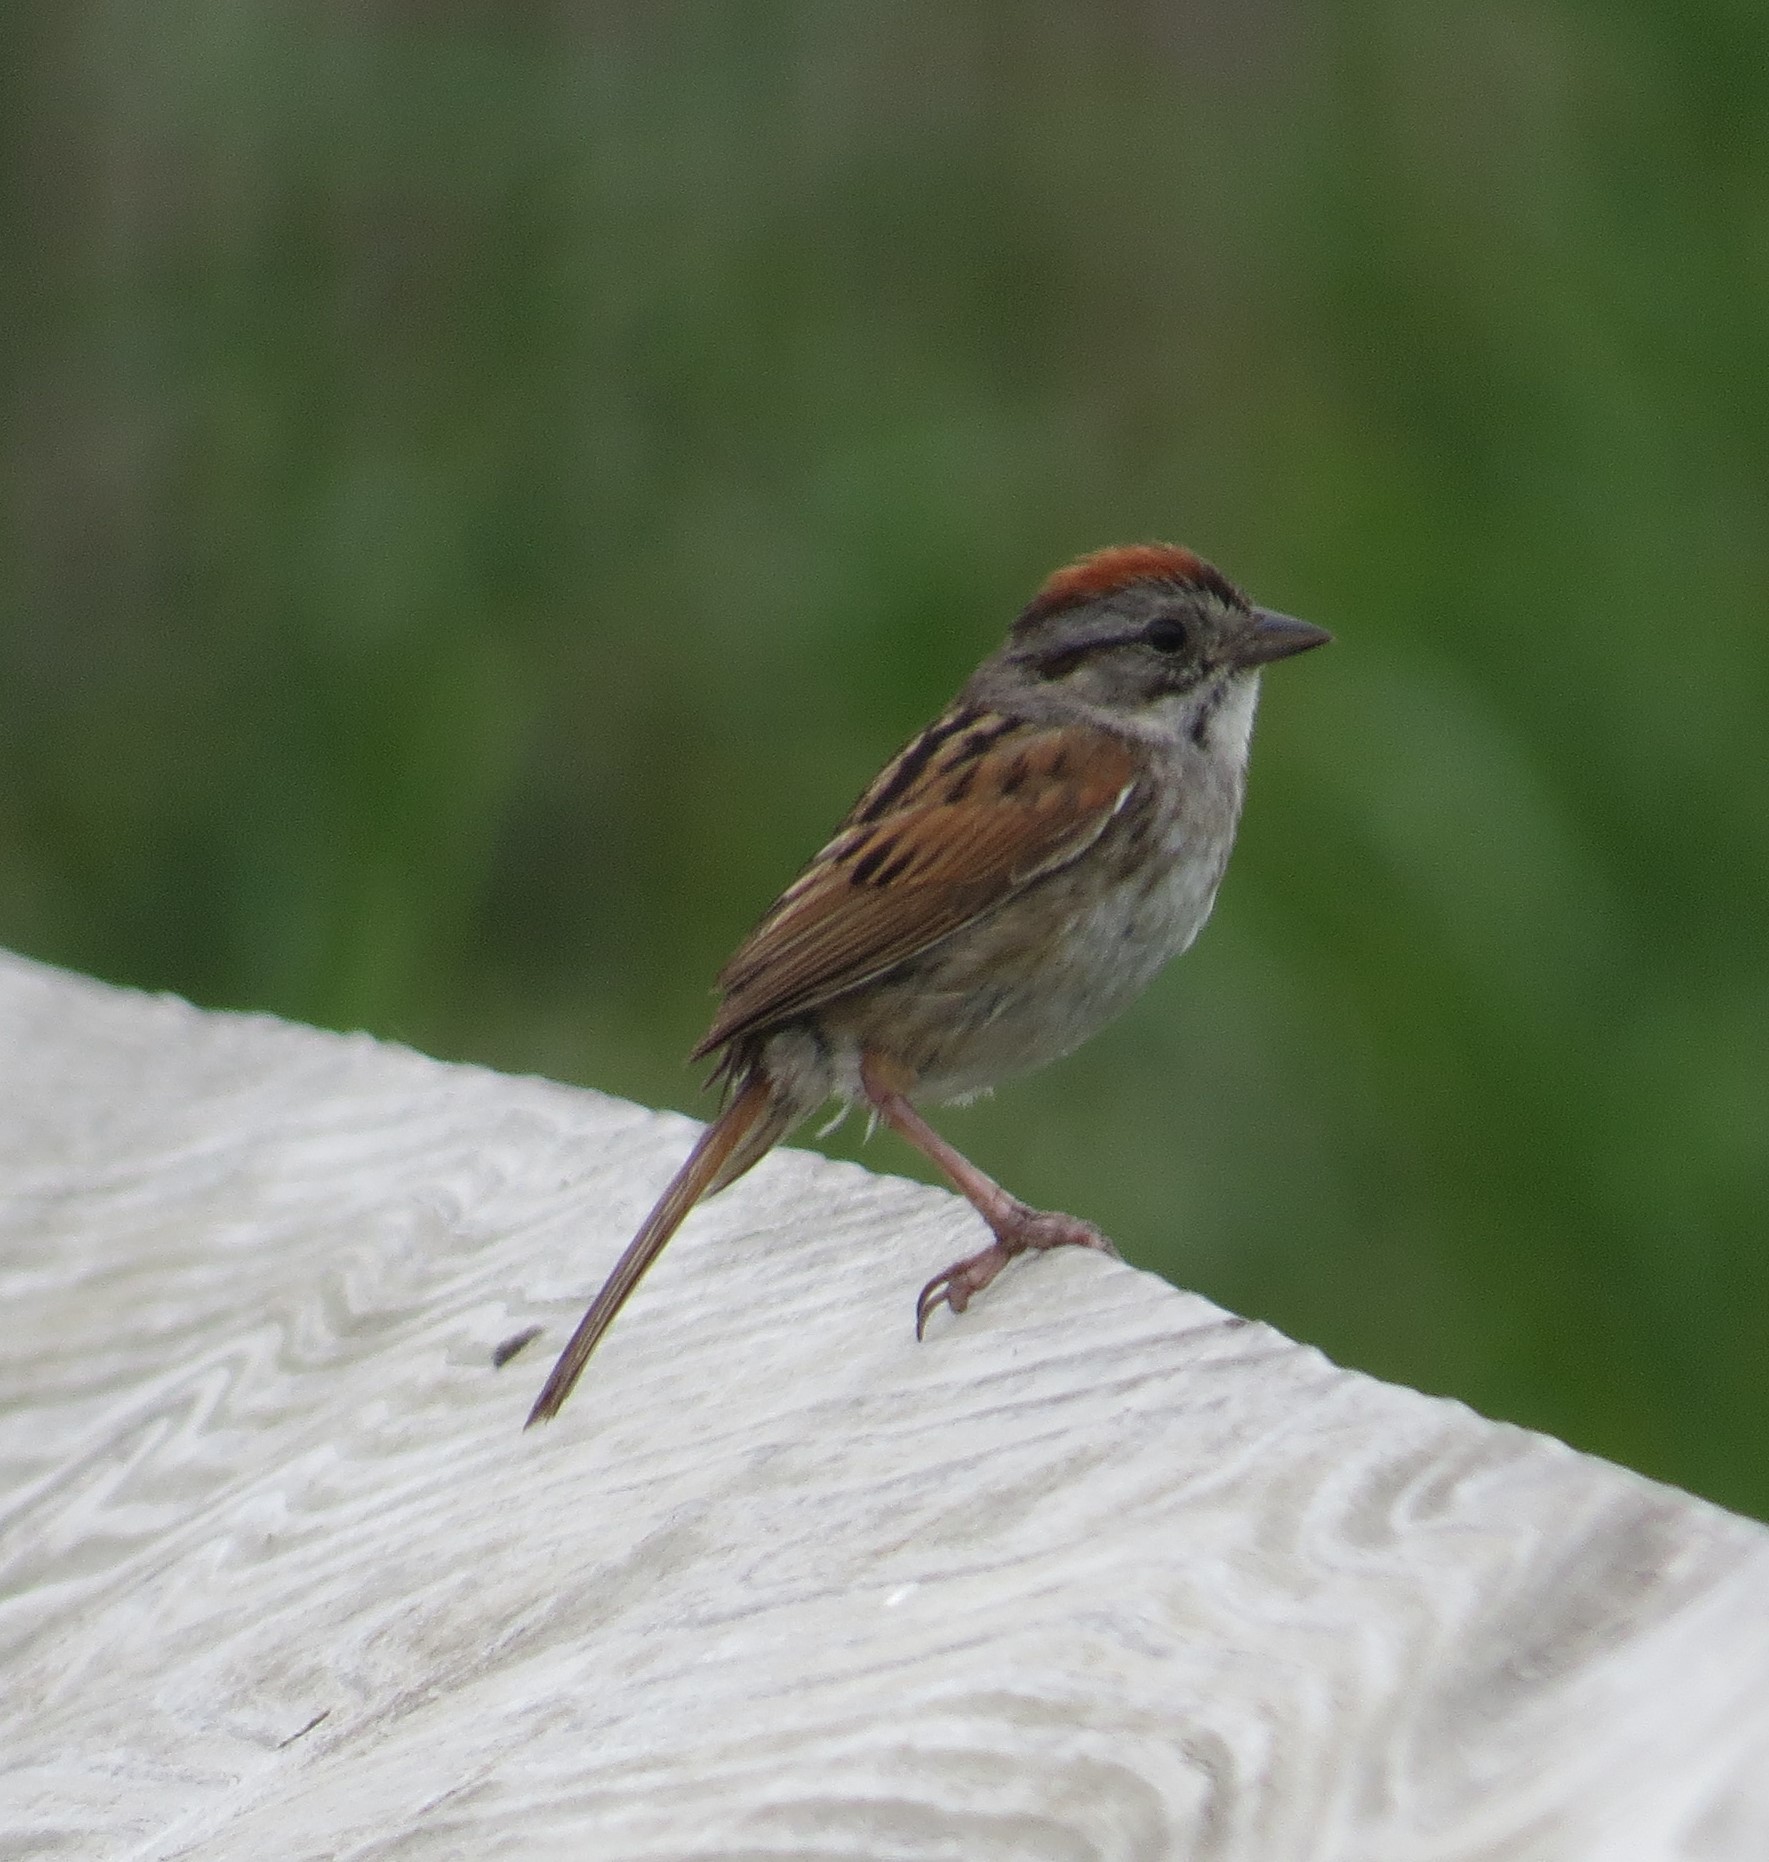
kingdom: Animalia
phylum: Chordata
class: Aves
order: Passeriformes
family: Passerellidae
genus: Melospiza
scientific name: Melospiza georgiana
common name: Swamp sparrow
